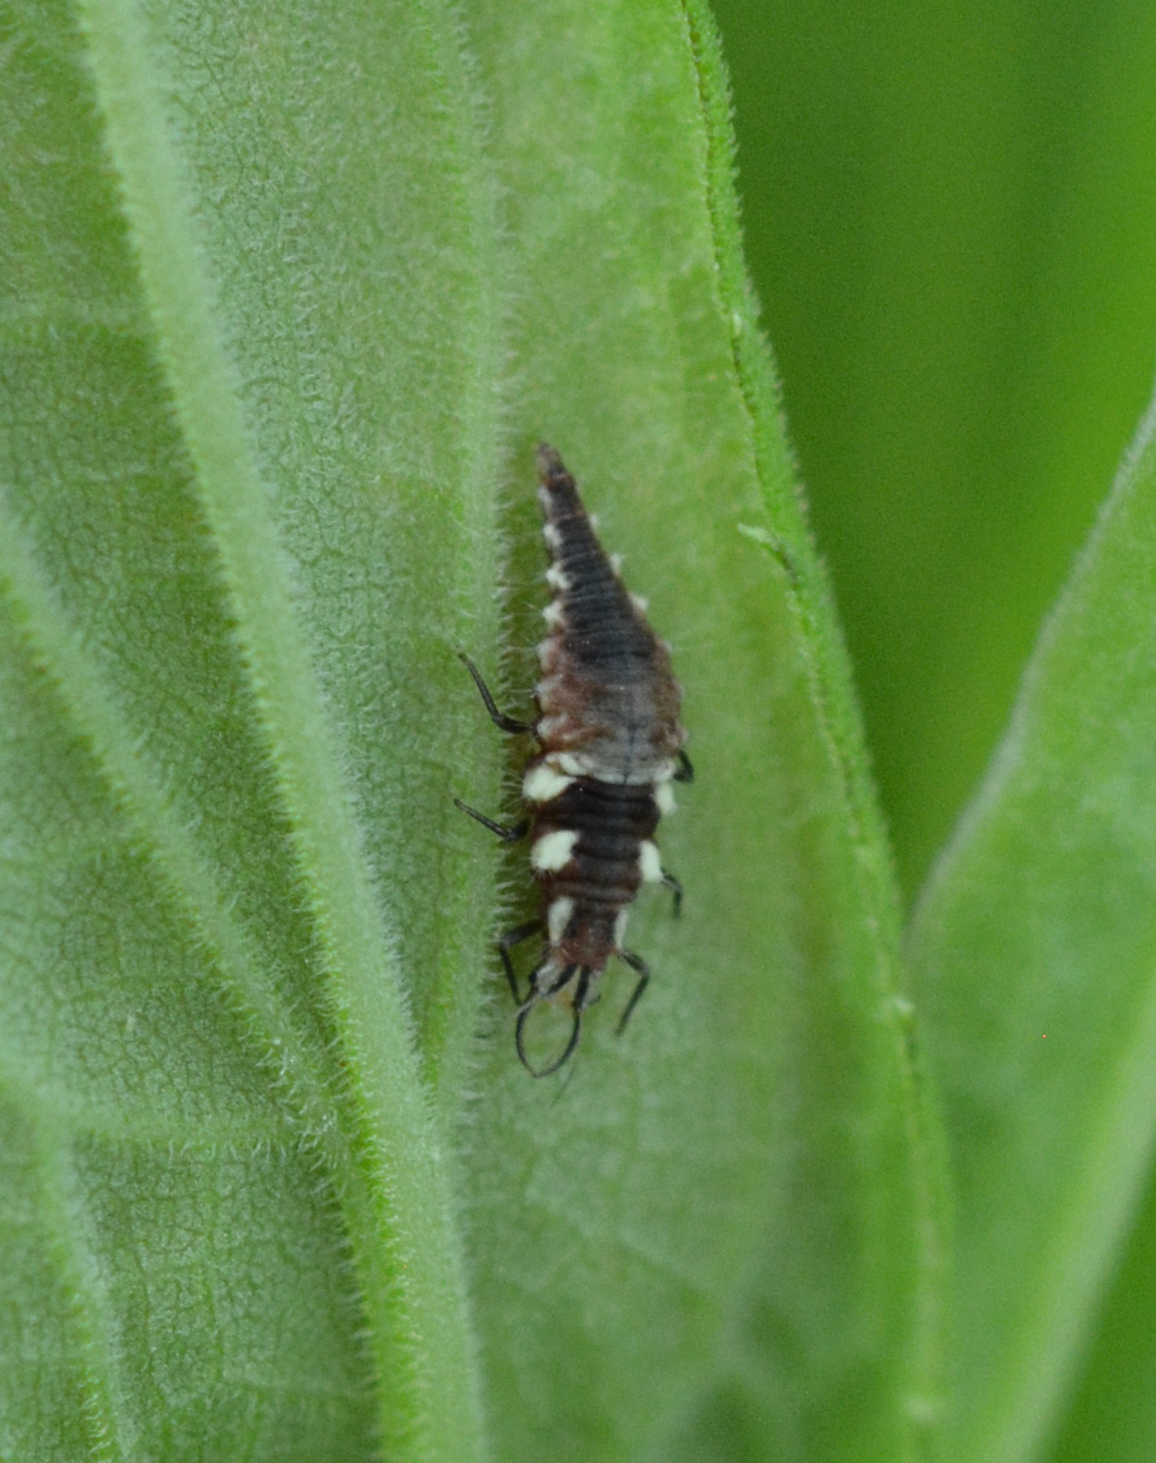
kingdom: Animalia
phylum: Arthropoda
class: Insecta
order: Neuroptera
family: Chrysopidae
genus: Chrysoperla
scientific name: Chrysoperla rufilabris
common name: Red-lipped green lacewing
